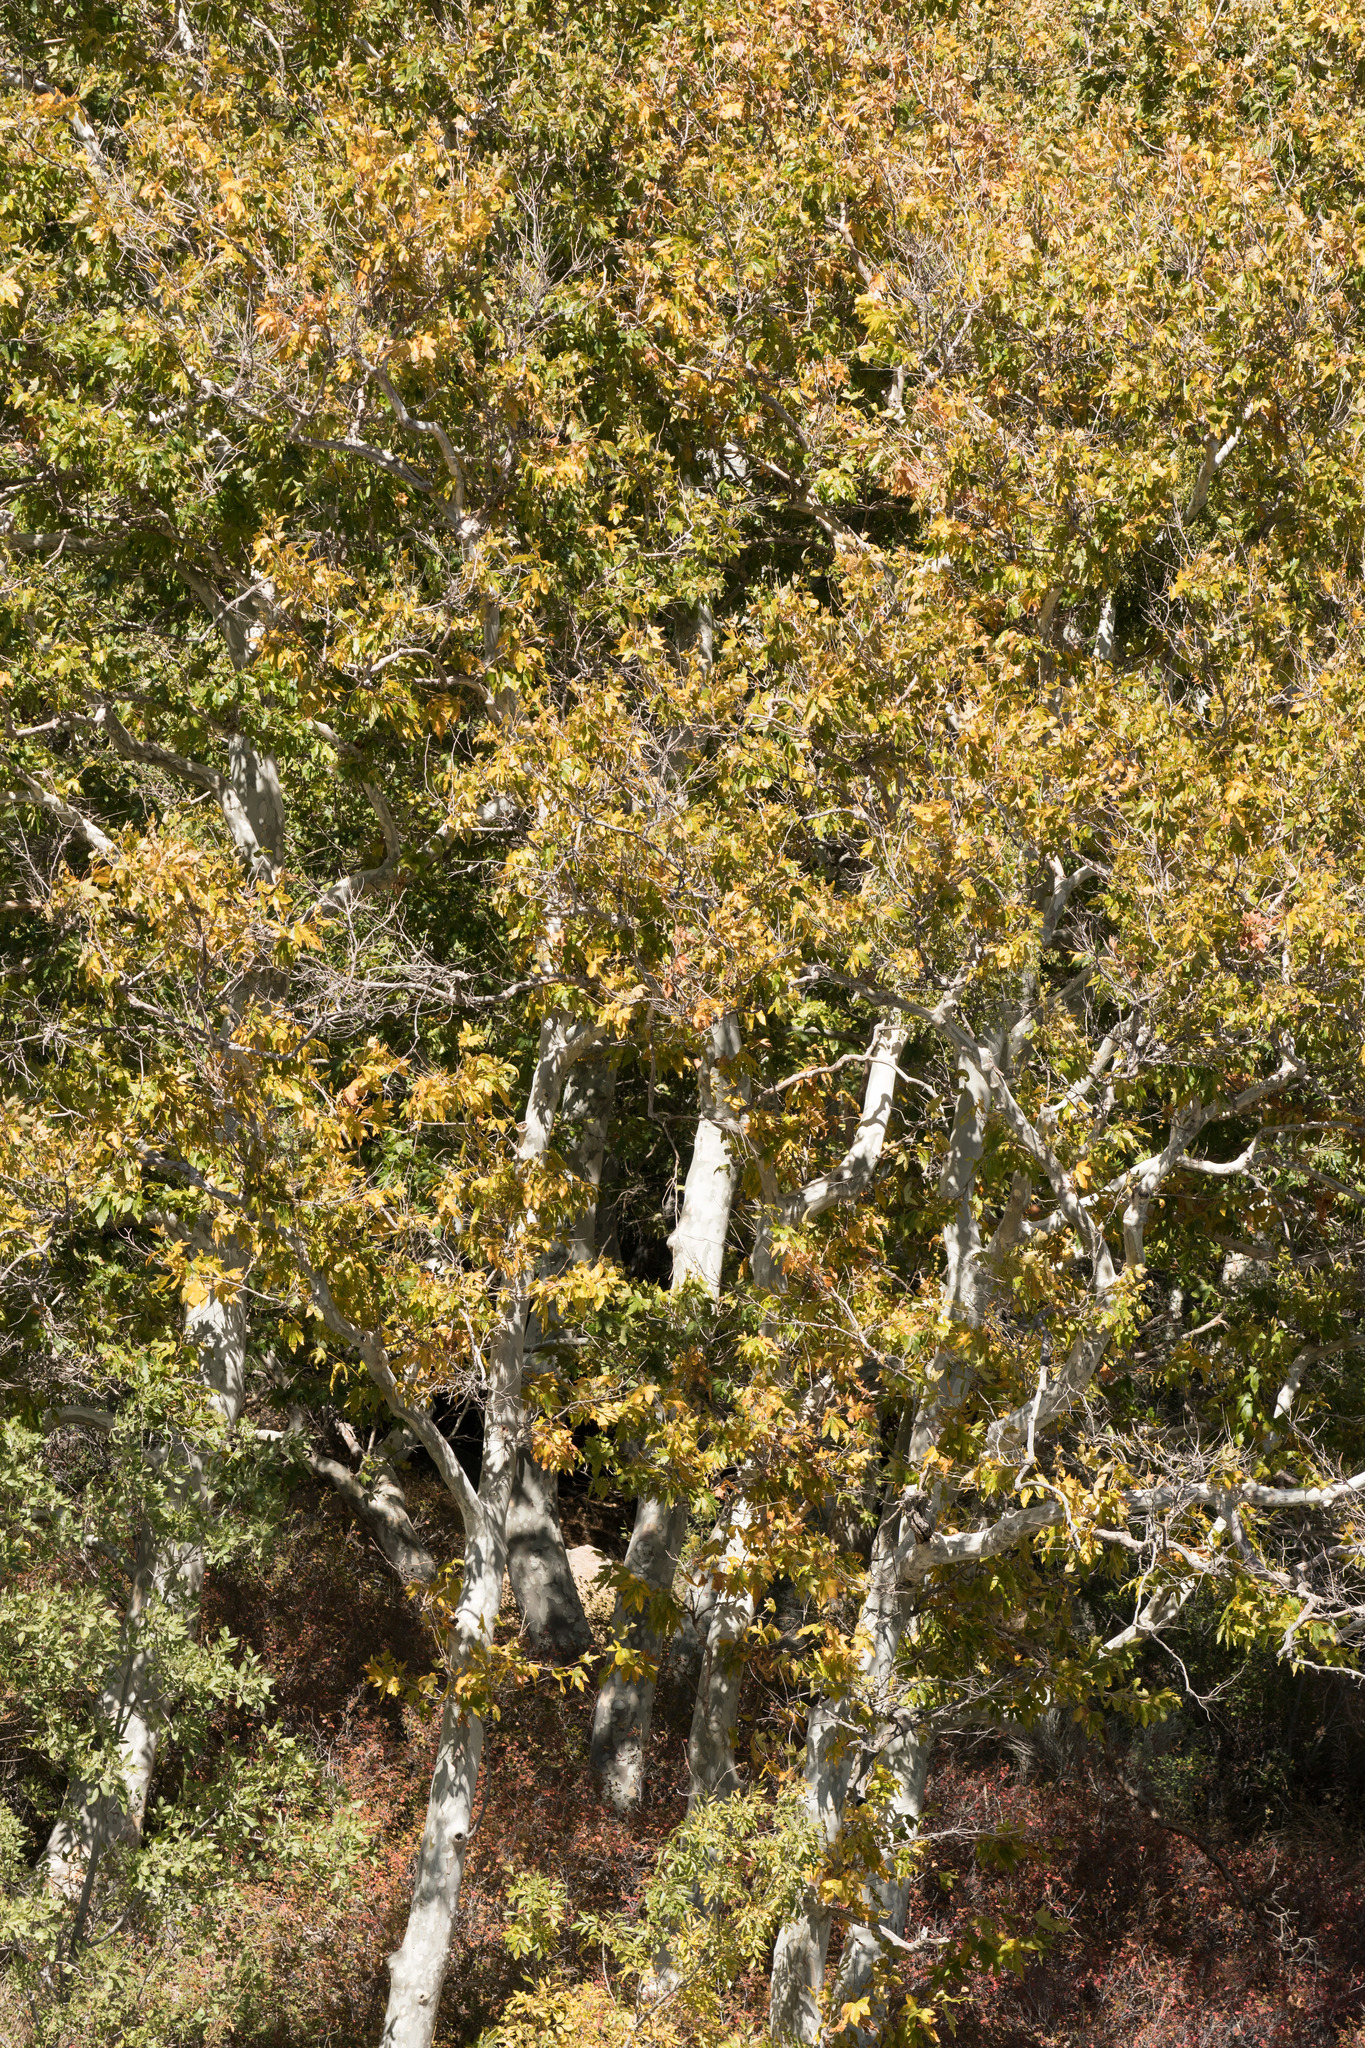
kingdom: Plantae
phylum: Tracheophyta
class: Magnoliopsida
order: Proteales
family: Platanaceae
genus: Platanus
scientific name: Platanus racemosa
